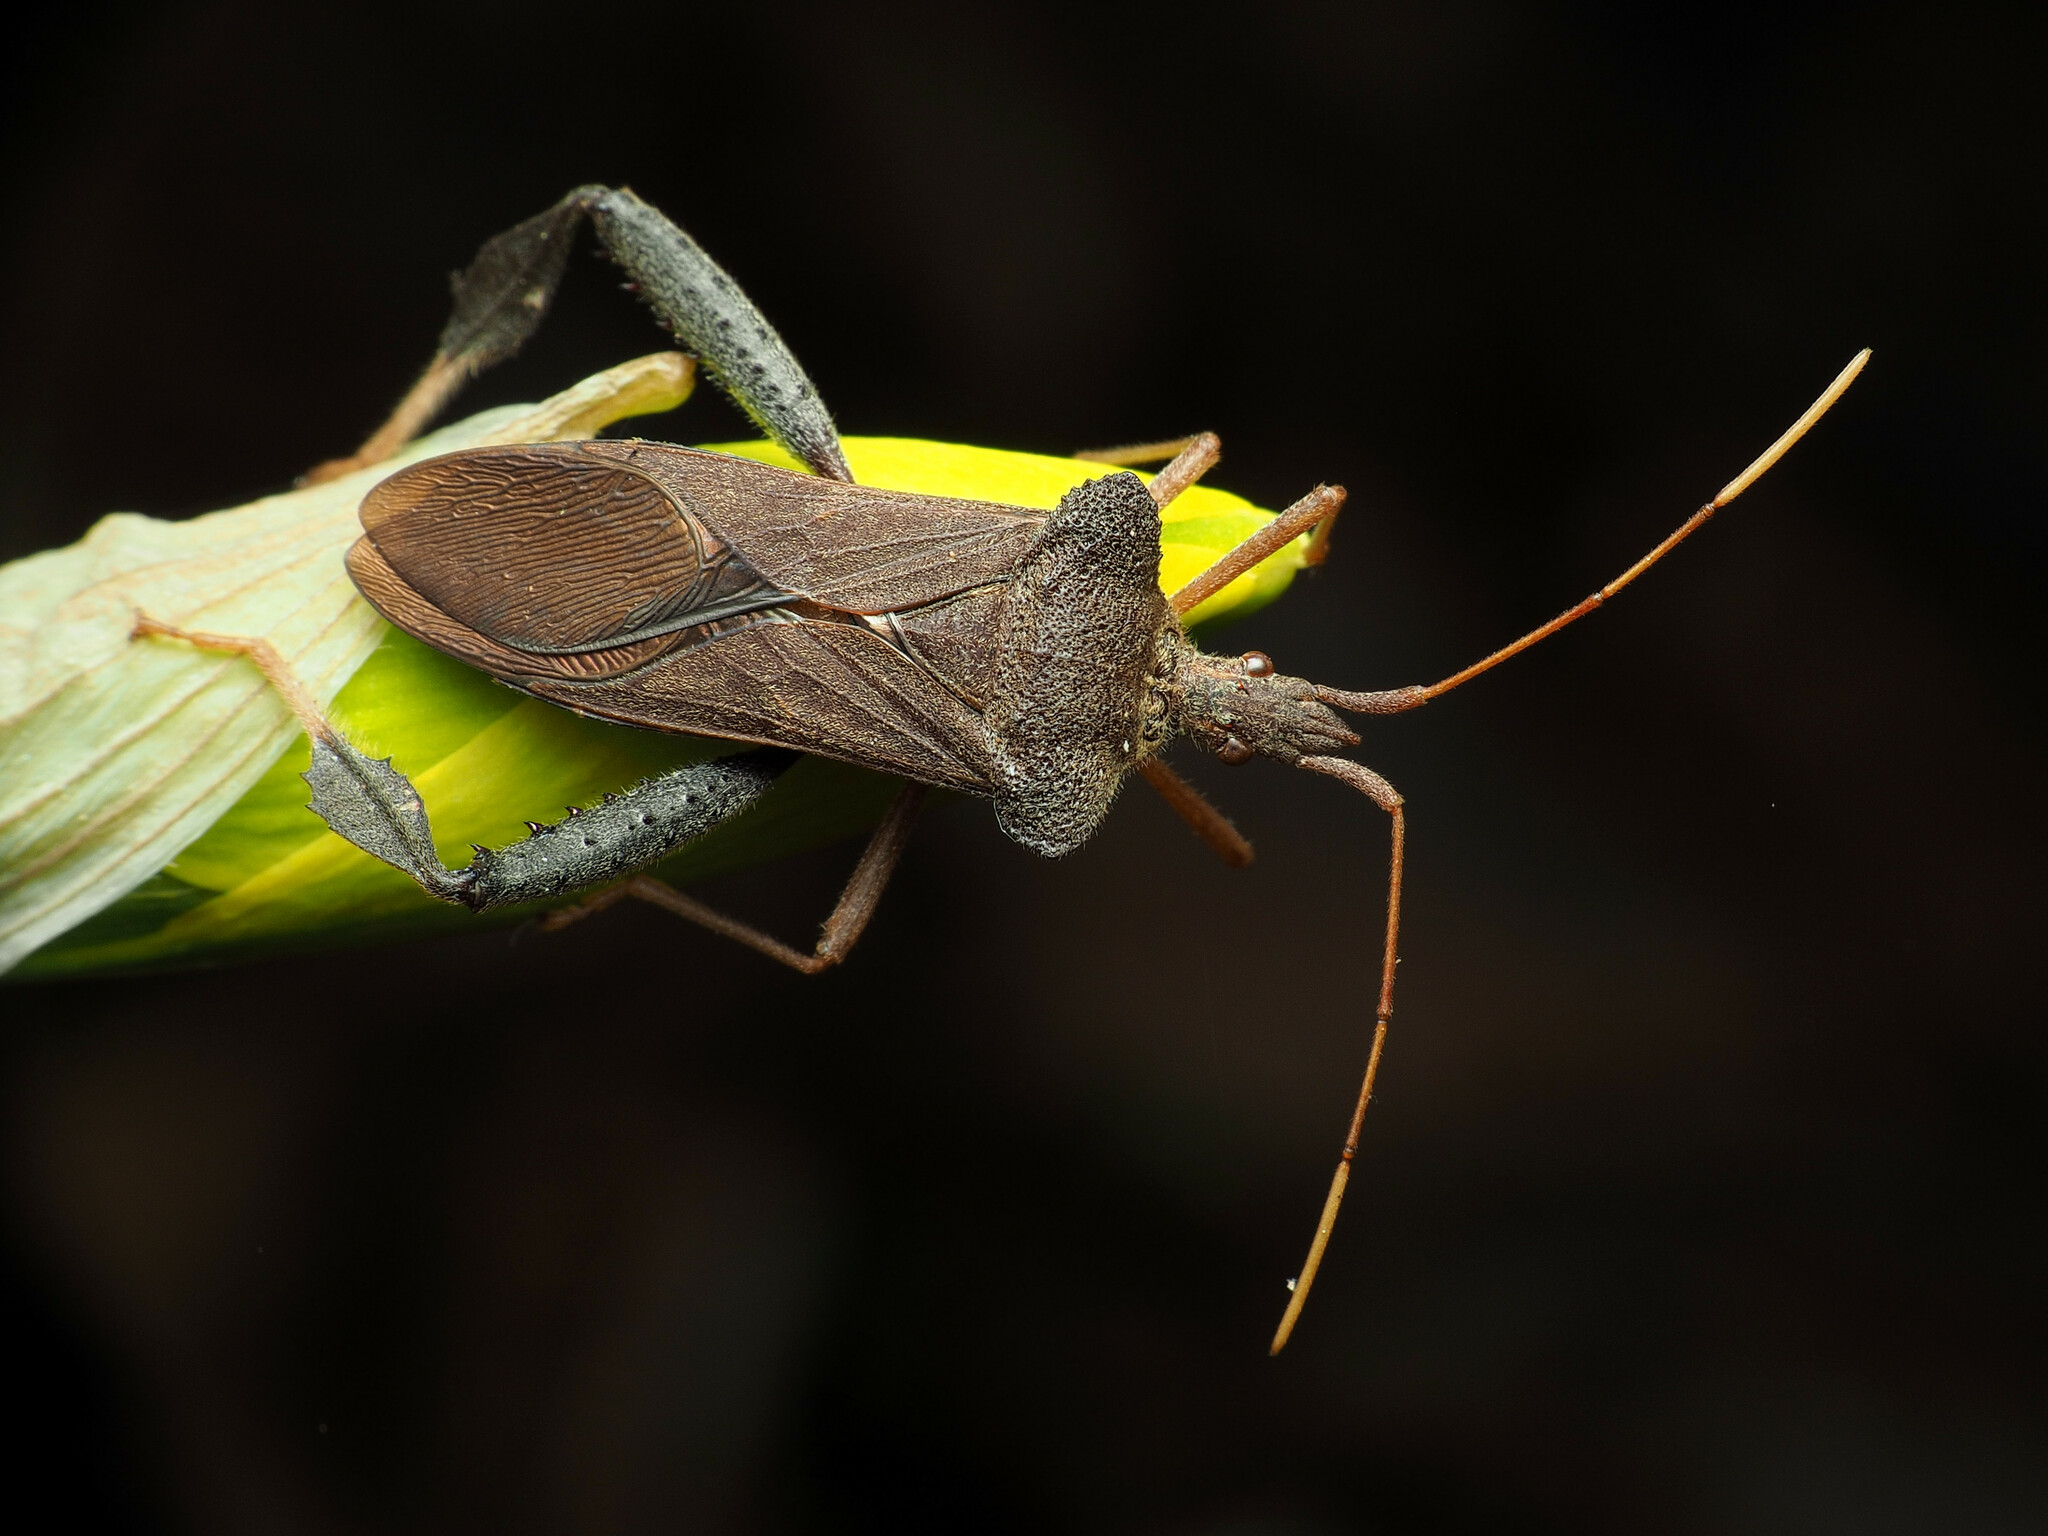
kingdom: Animalia
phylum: Arthropoda
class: Insecta
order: Hemiptera
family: Coreidae
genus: Leptoglossus
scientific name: Leptoglossus fulvicornis
